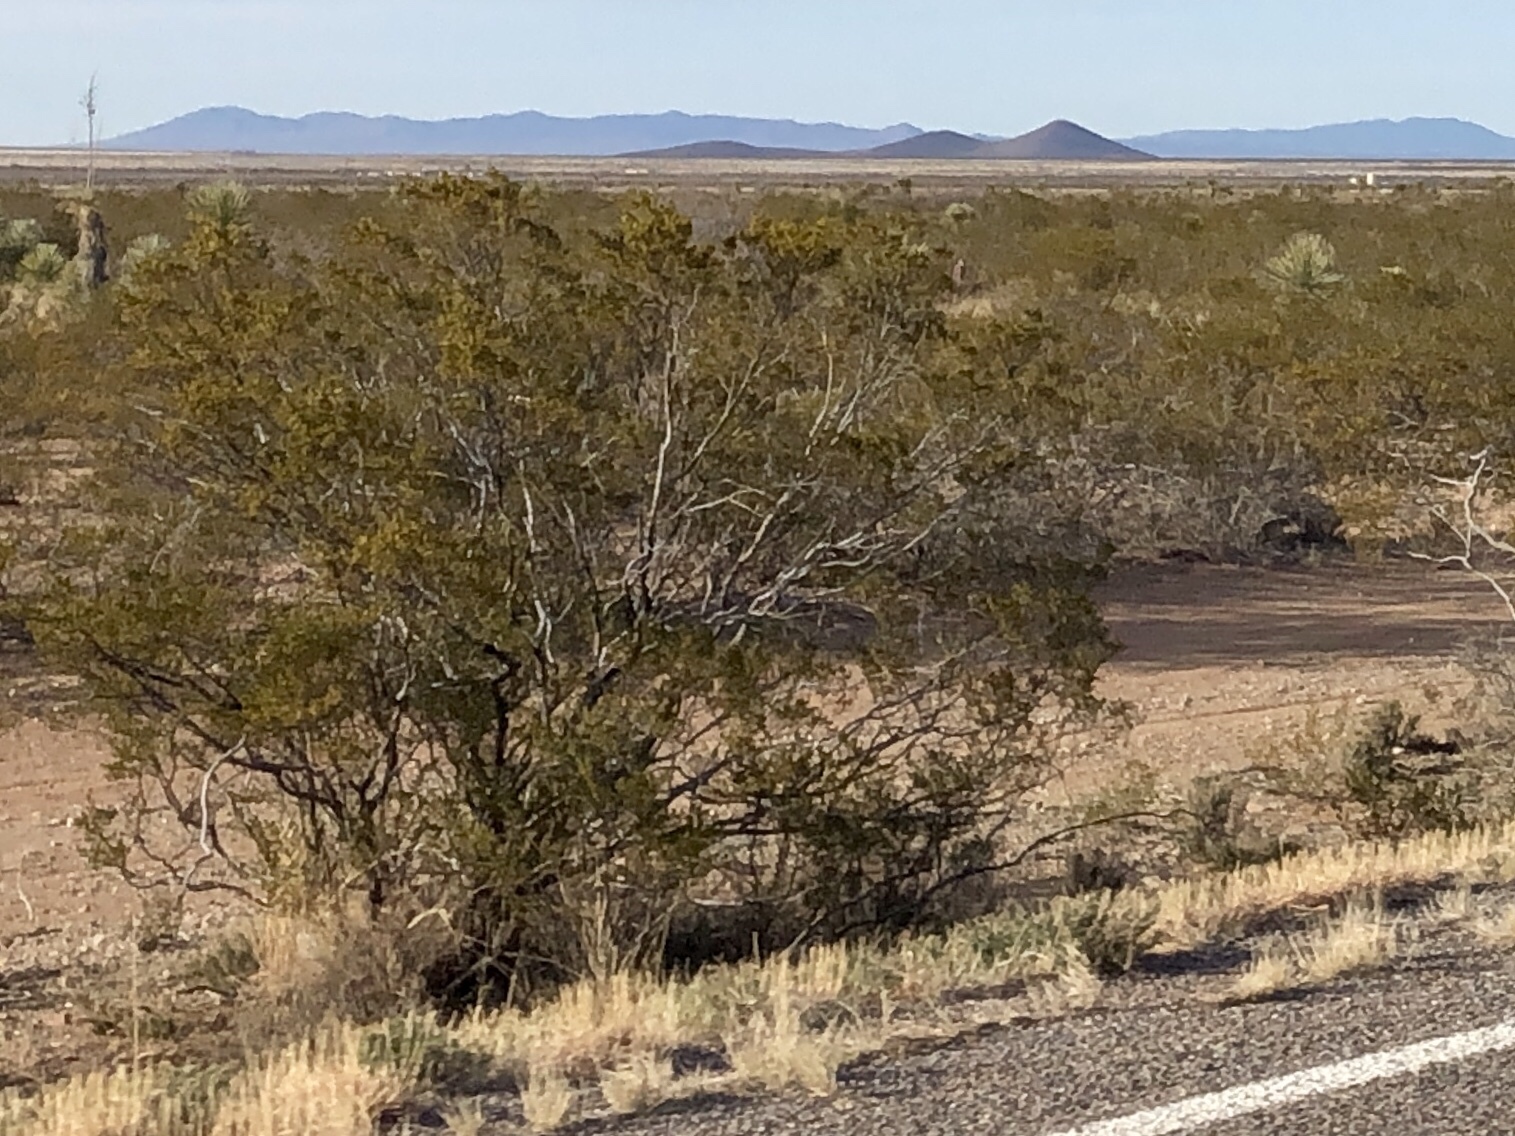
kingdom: Plantae
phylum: Tracheophyta
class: Magnoliopsida
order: Zygophyllales
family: Zygophyllaceae
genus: Larrea
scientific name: Larrea tridentata
